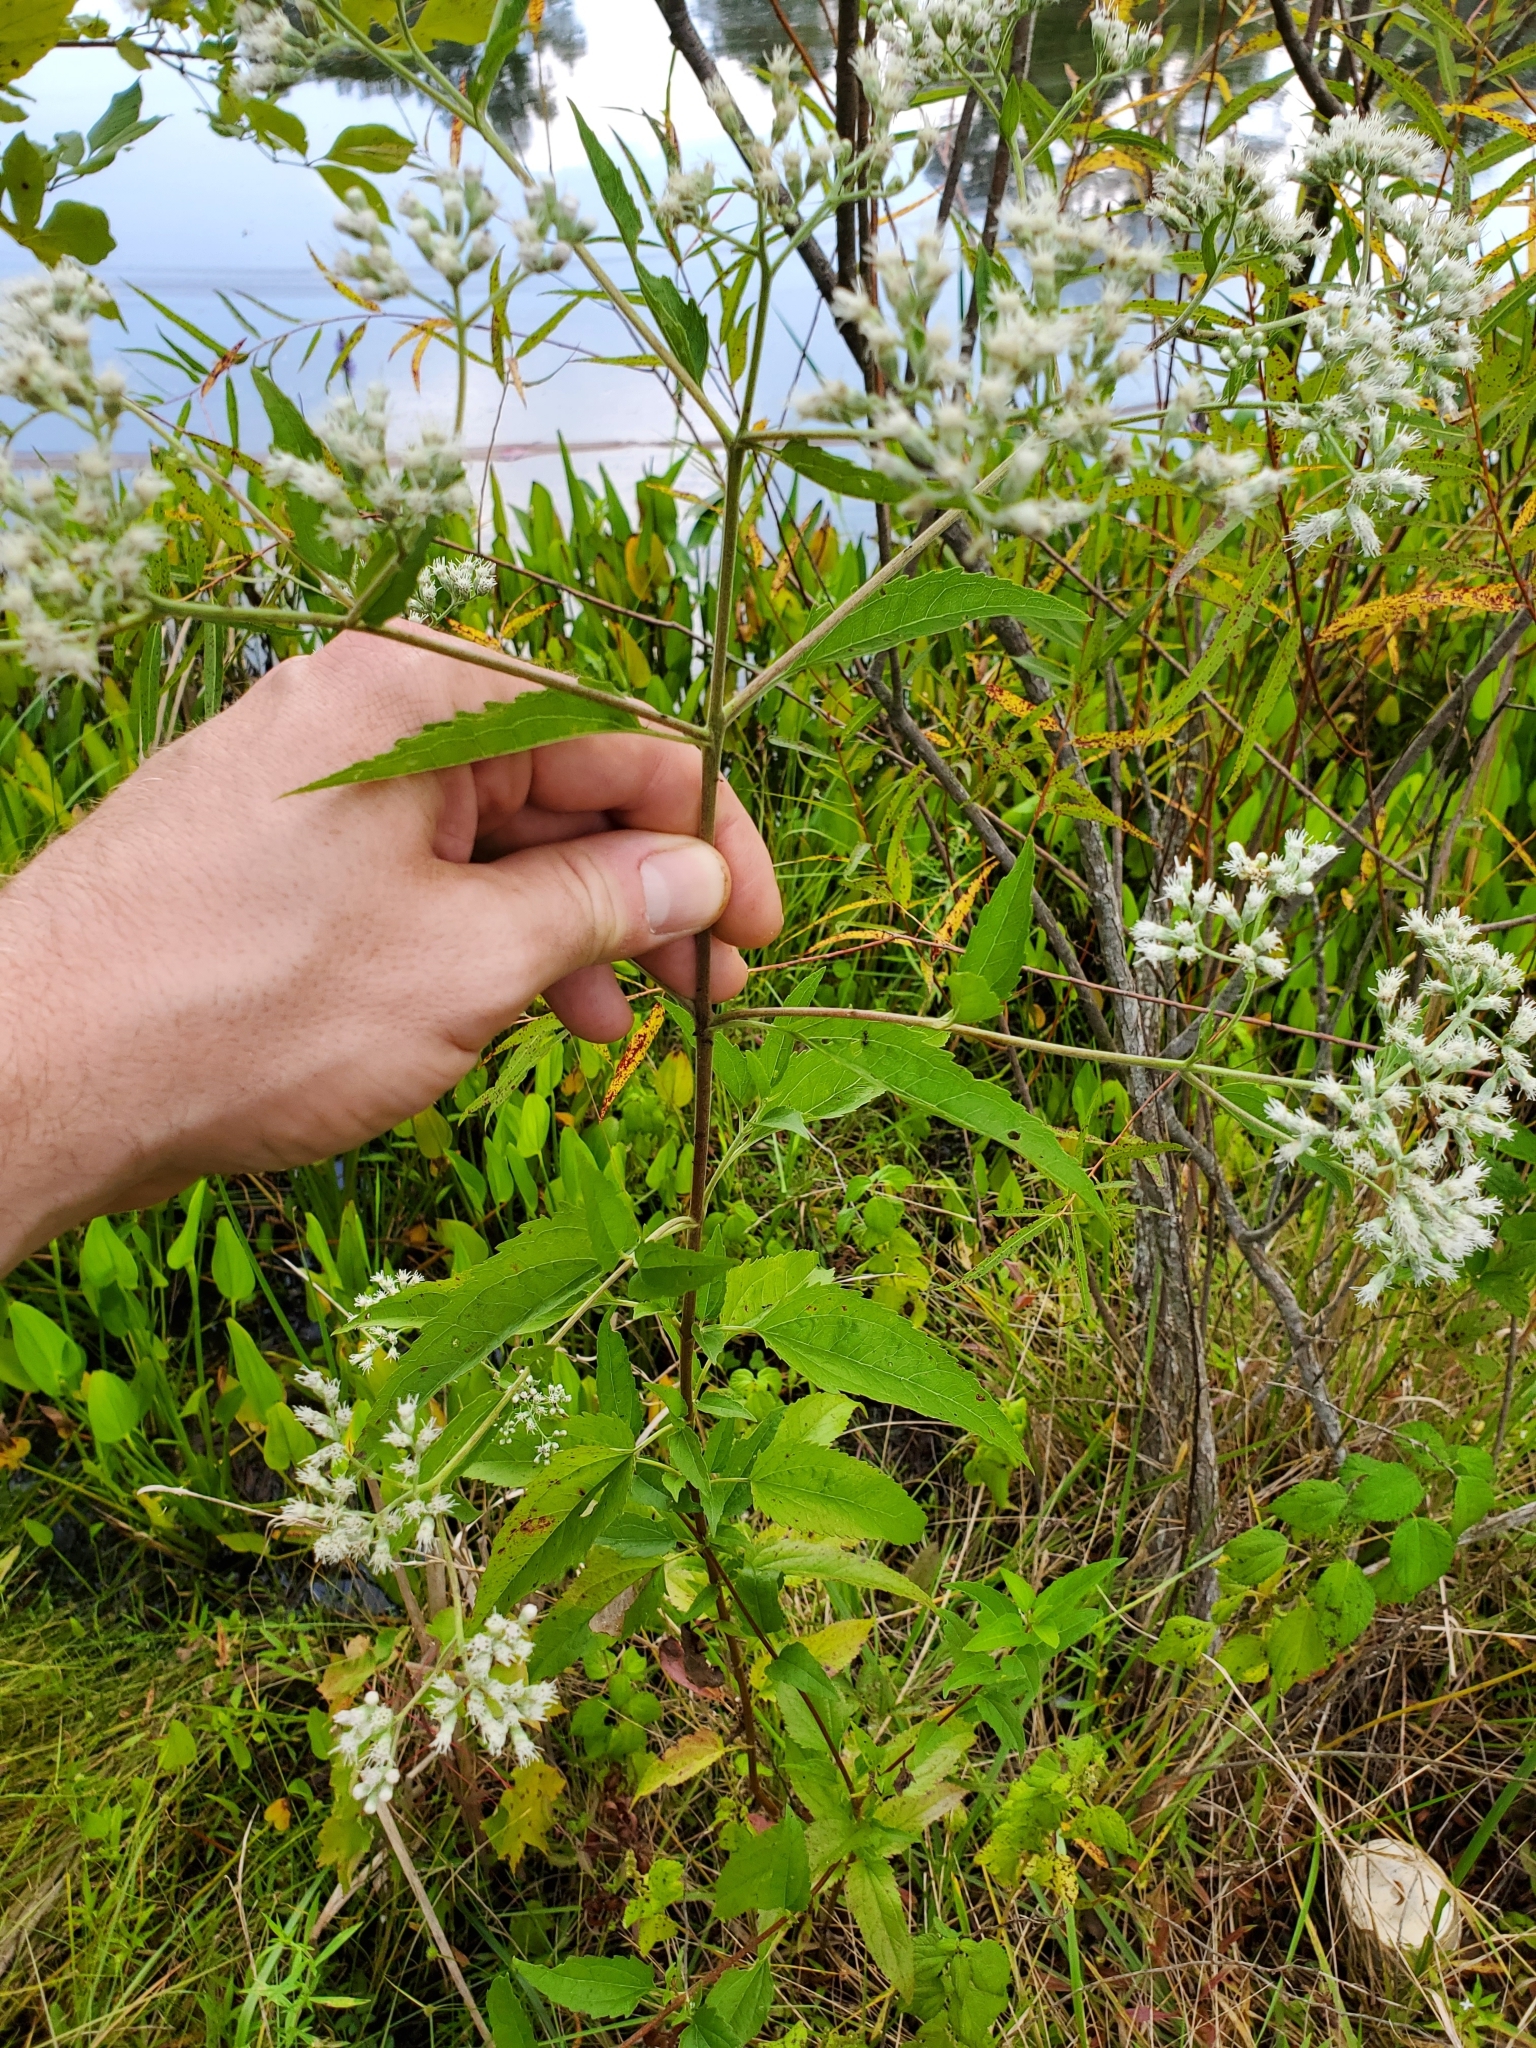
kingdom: Plantae
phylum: Tracheophyta
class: Magnoliopsida
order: Asterales
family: Asteraceae
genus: Eupatorium
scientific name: Eupatorium serotinum
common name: Late boneset
